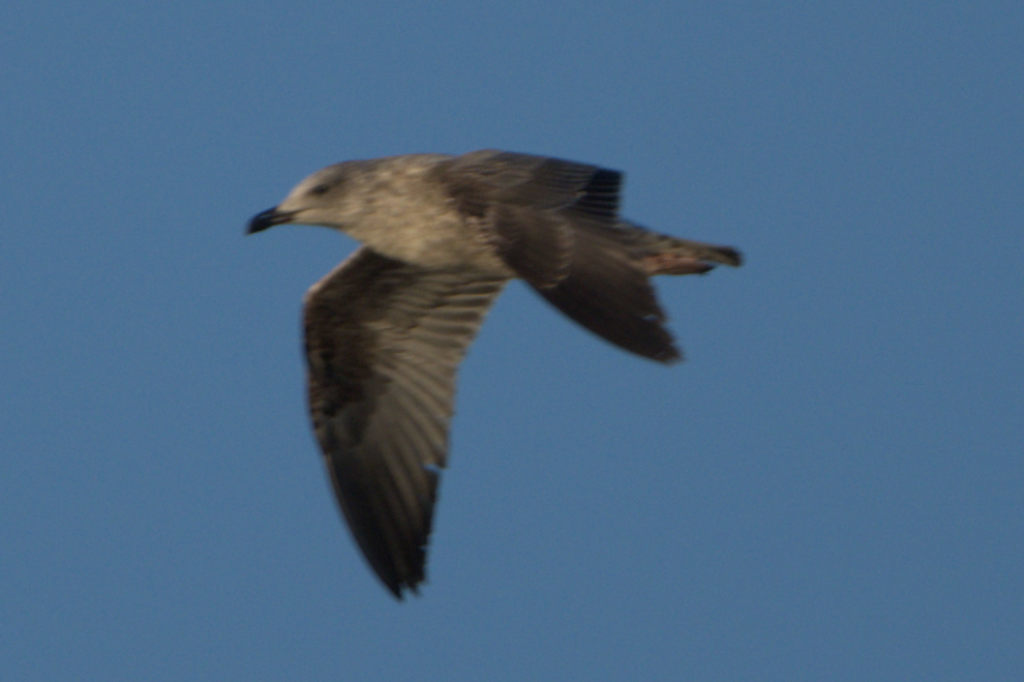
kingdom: Animalia
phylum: Chordata
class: Aves
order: Charadriiformes
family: Laridae
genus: Larus
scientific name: Larus argentatus
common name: Herring gull
